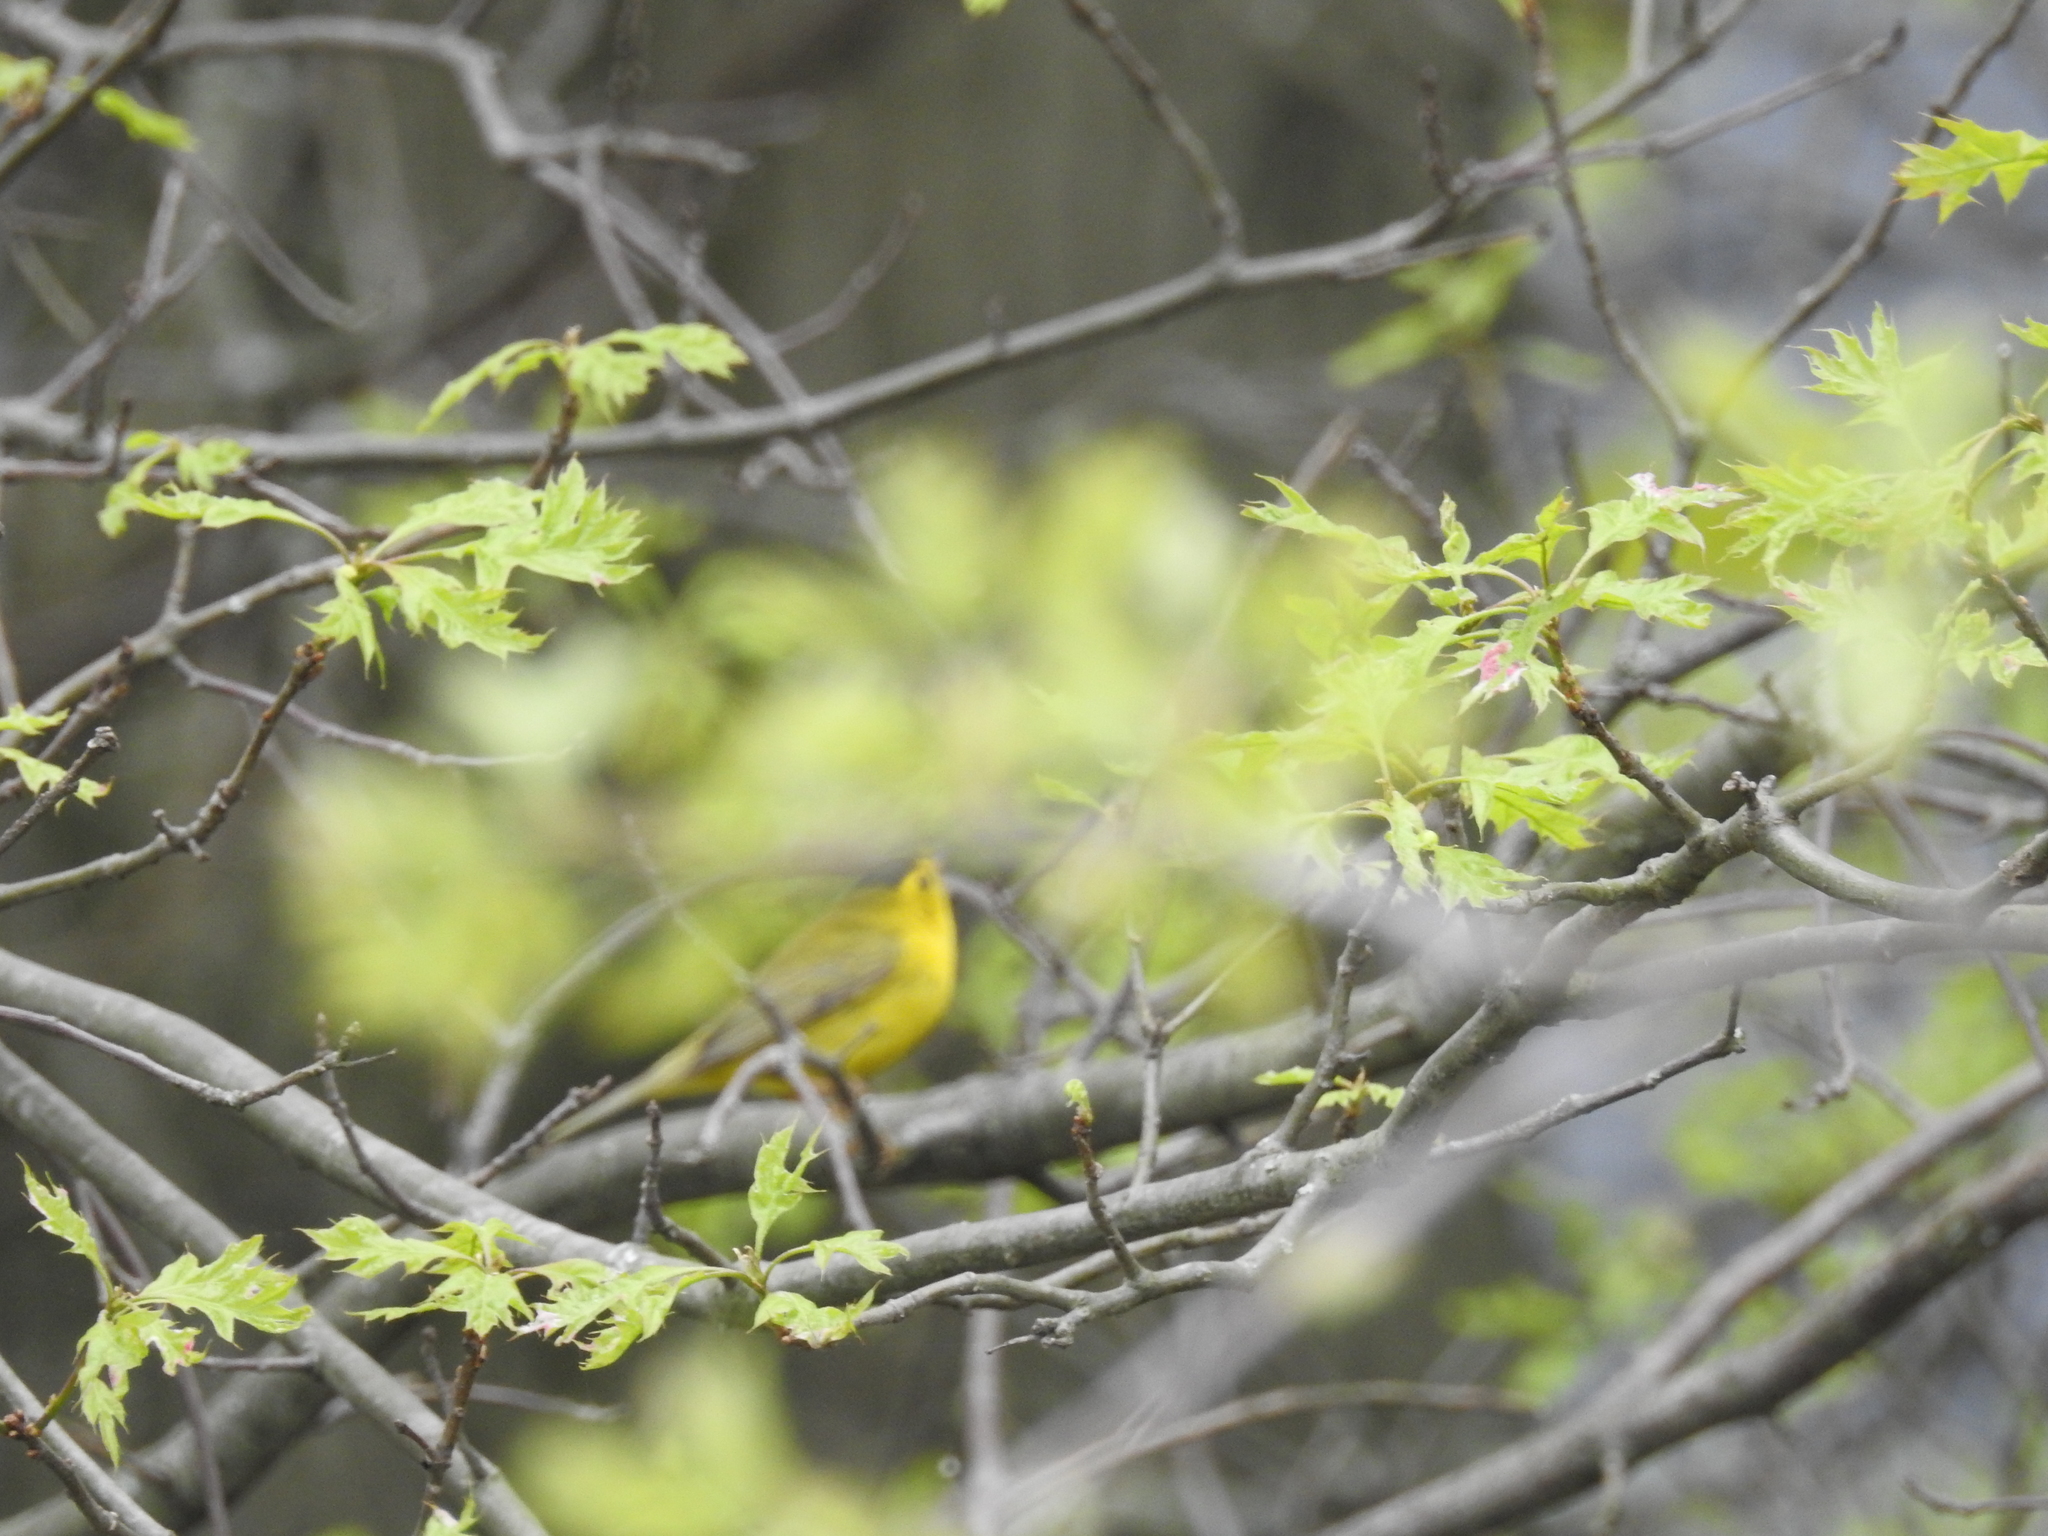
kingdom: Animalia
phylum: Chordata
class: Aves
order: Passeriformes
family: Parulidae
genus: Cardellina
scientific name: Cardellina pusilla
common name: Wilson's warbler
